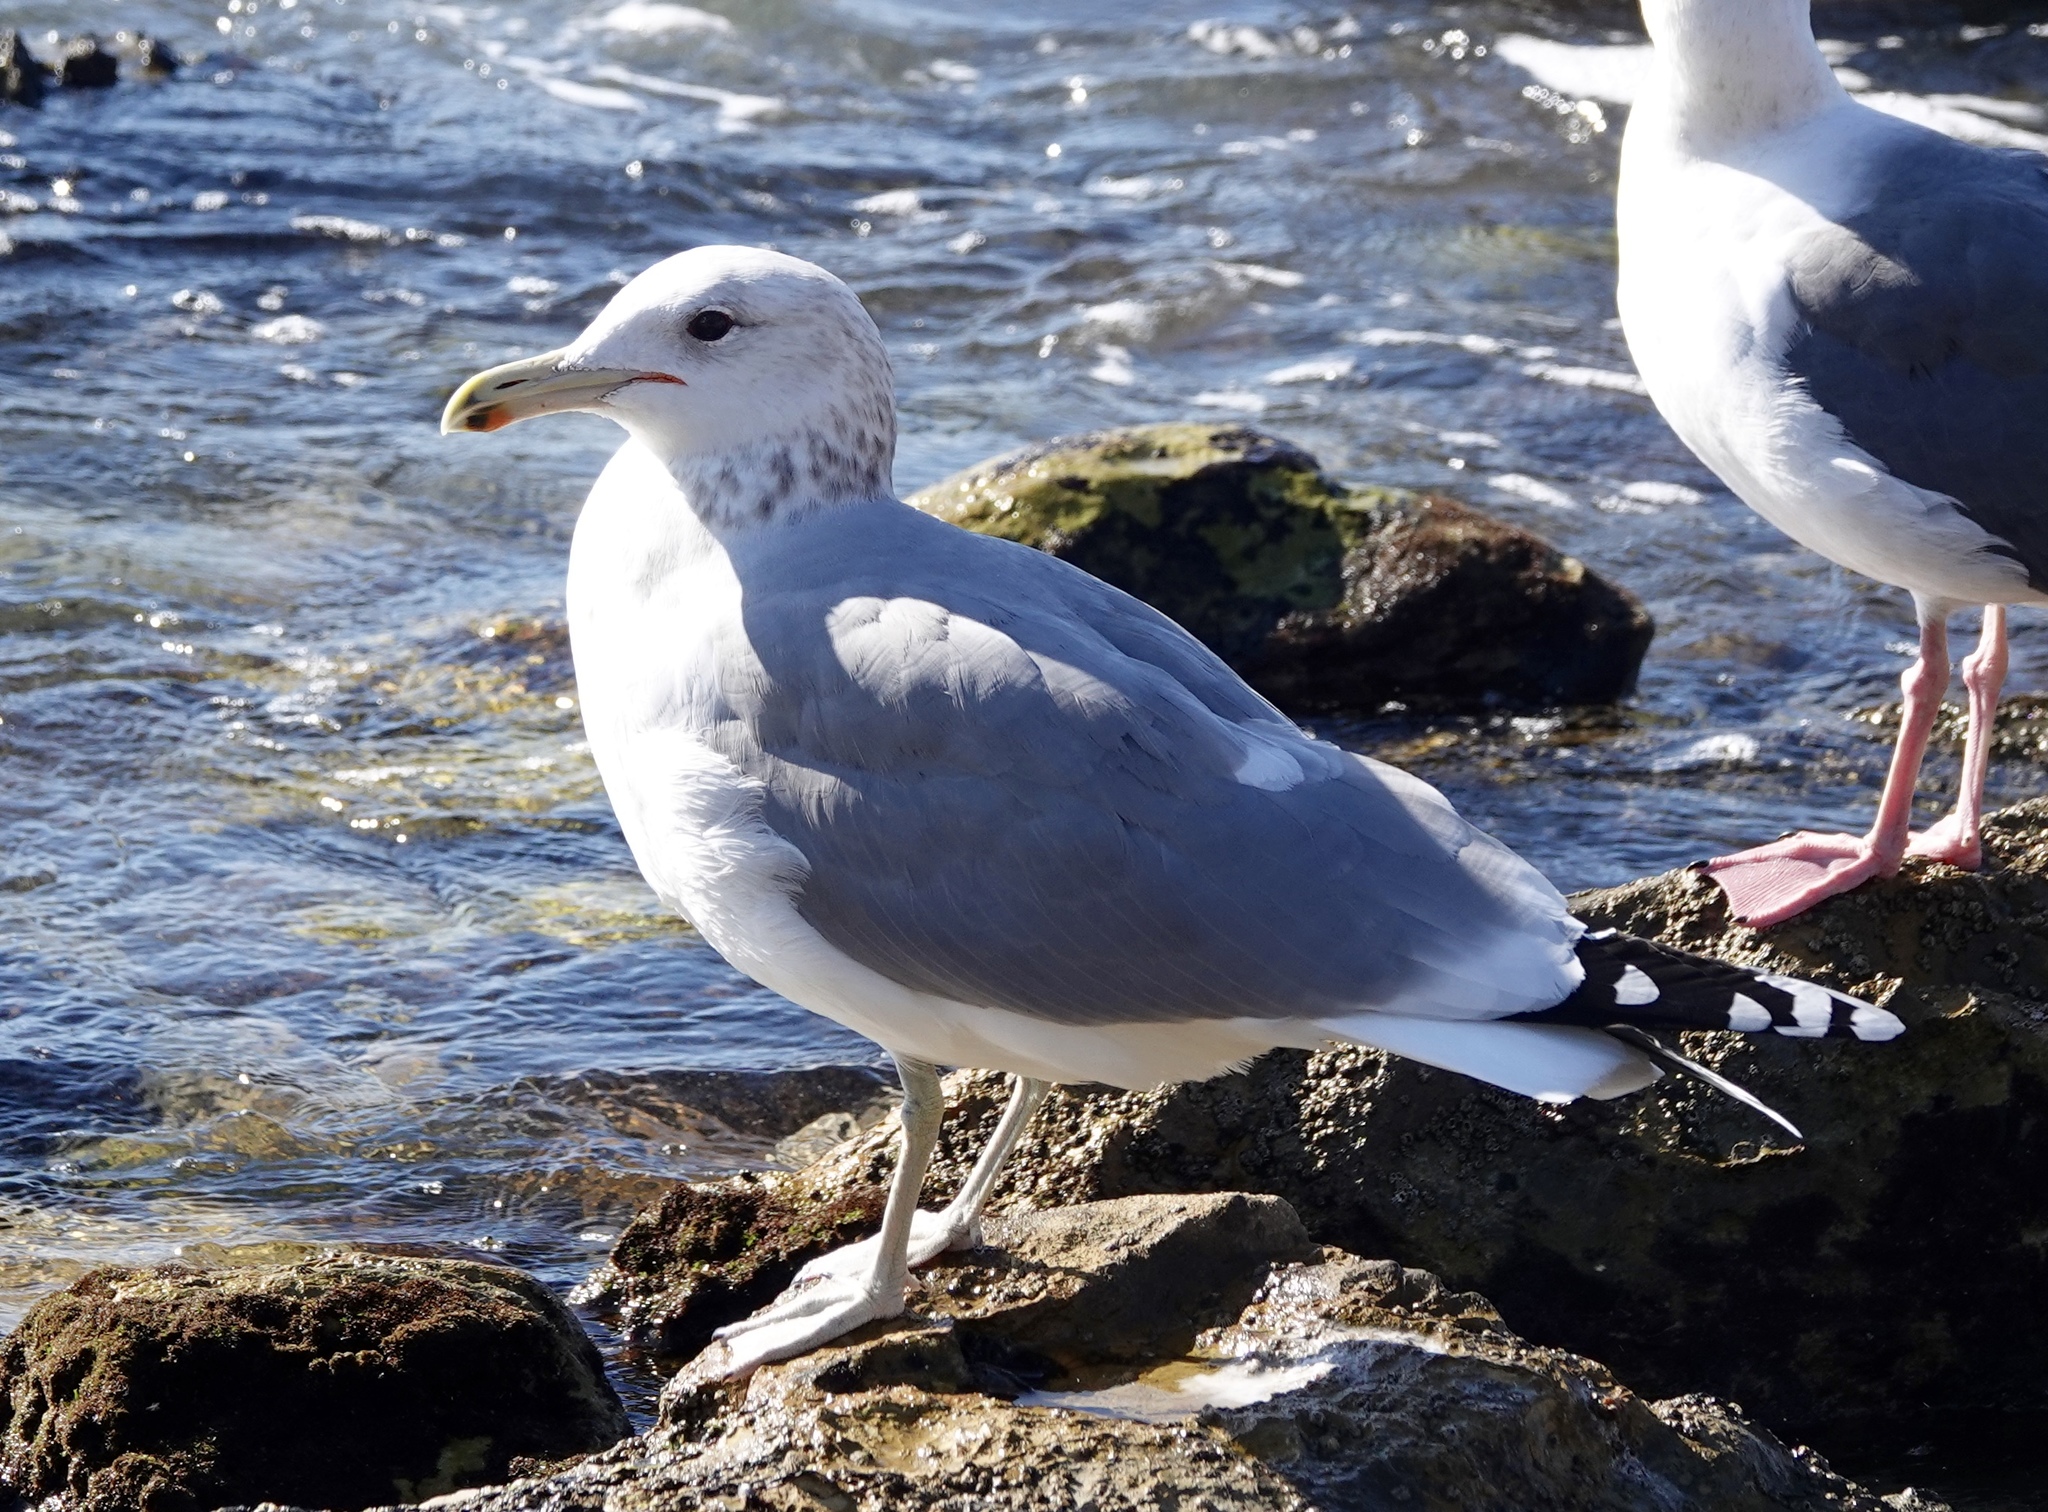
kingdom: Animalia
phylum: Chordata
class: Aves
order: Charadriiformes
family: Laridae
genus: Larus
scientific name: Larus californicus
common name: California gull
